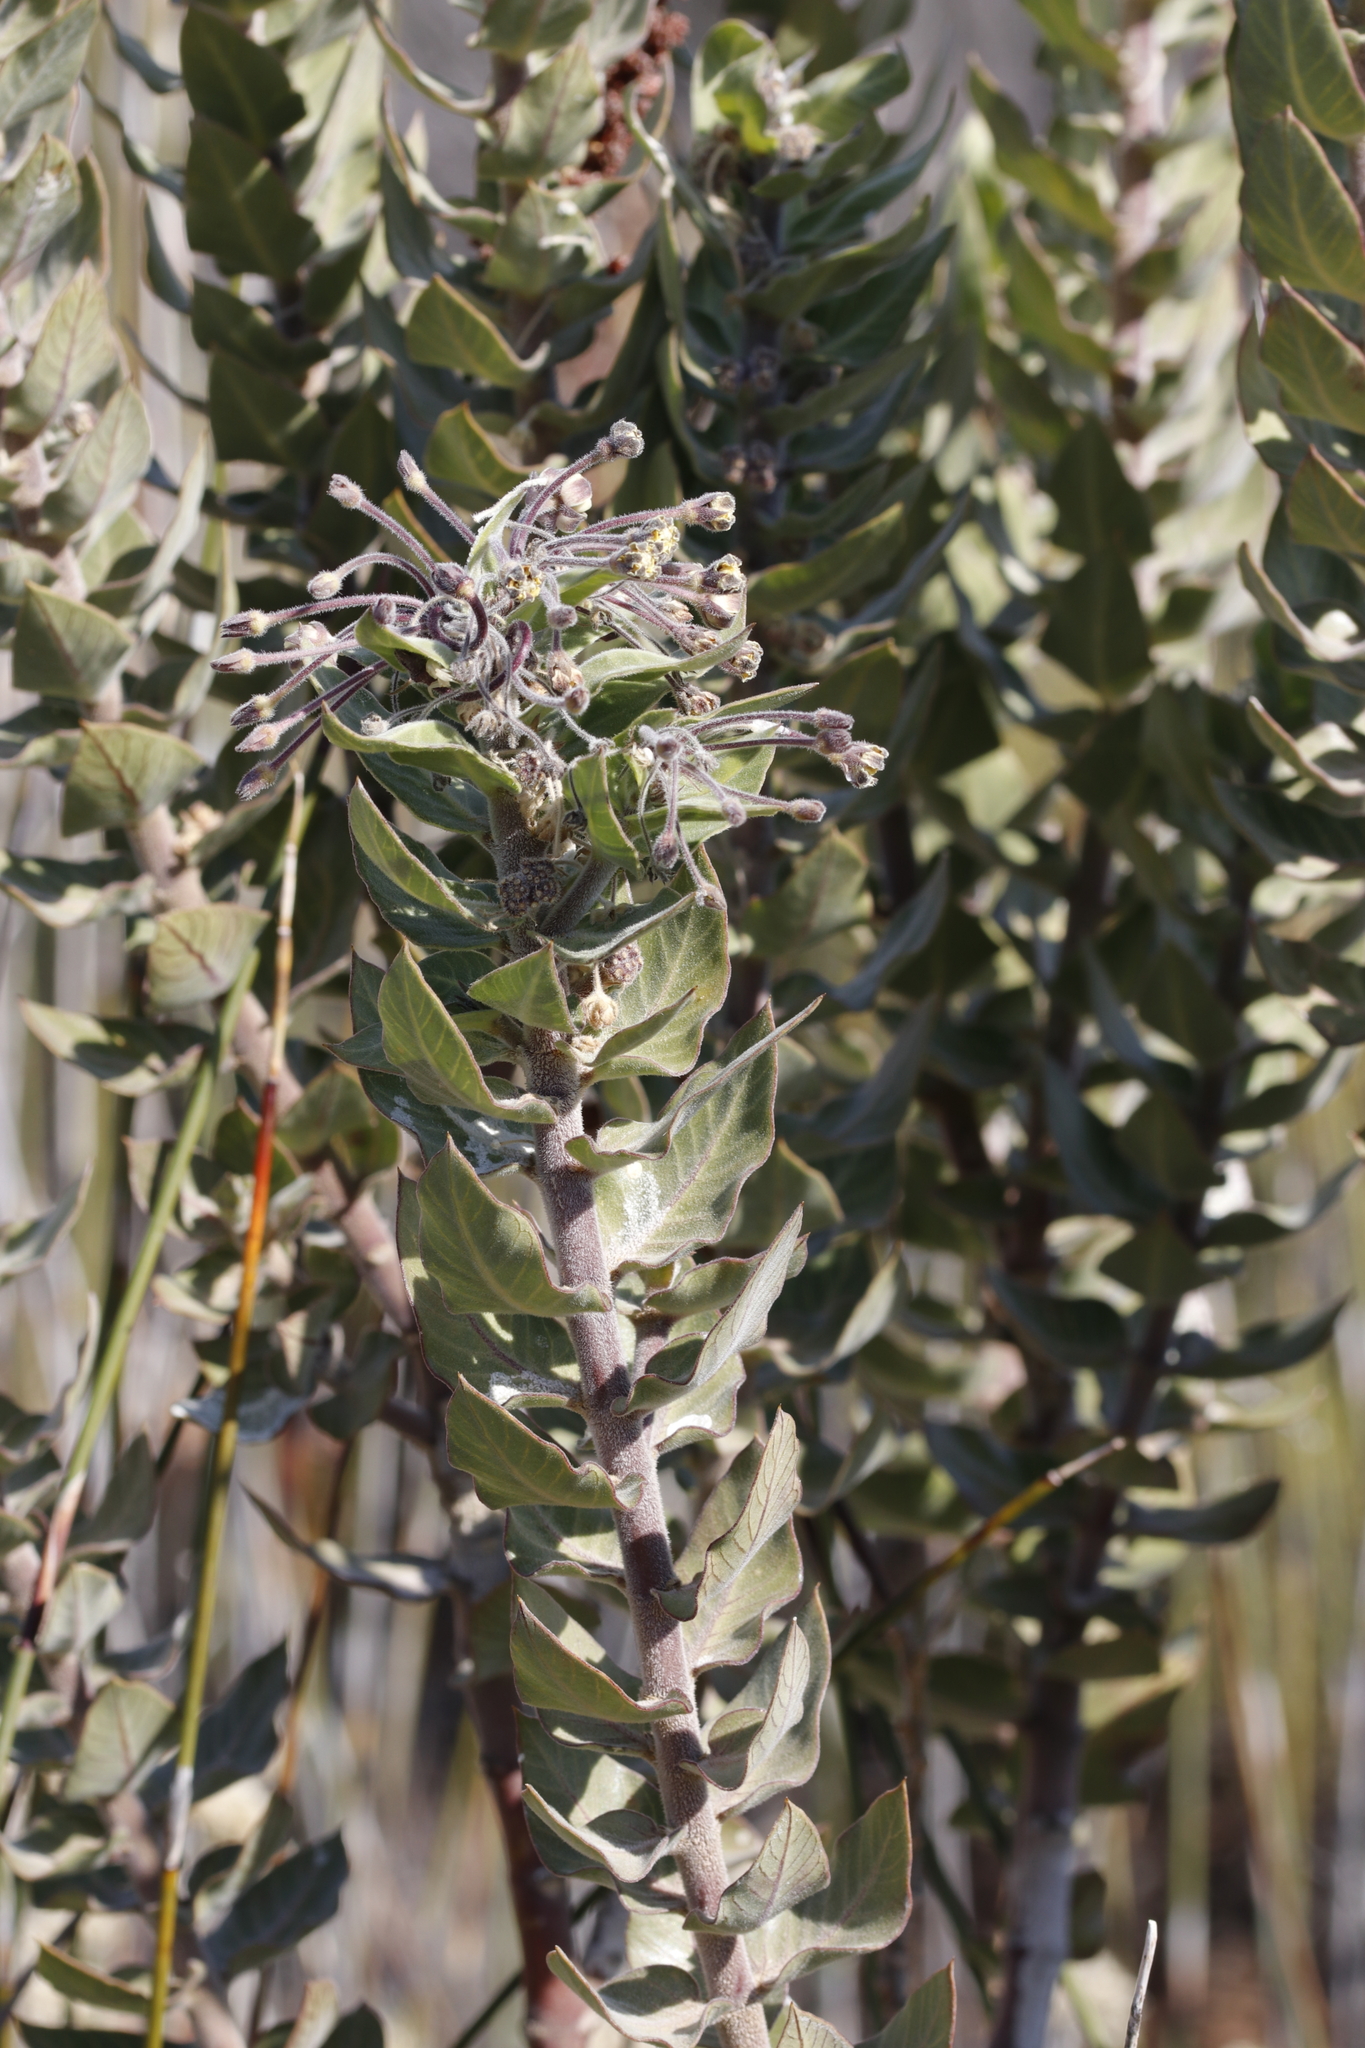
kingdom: Plantae
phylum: Tracheophyta
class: Magnoliopsida
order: Gentianales
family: Apocynaceae
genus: Gomphocarpus
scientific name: Gomphocarpus cancellatus
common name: Wild cotton
